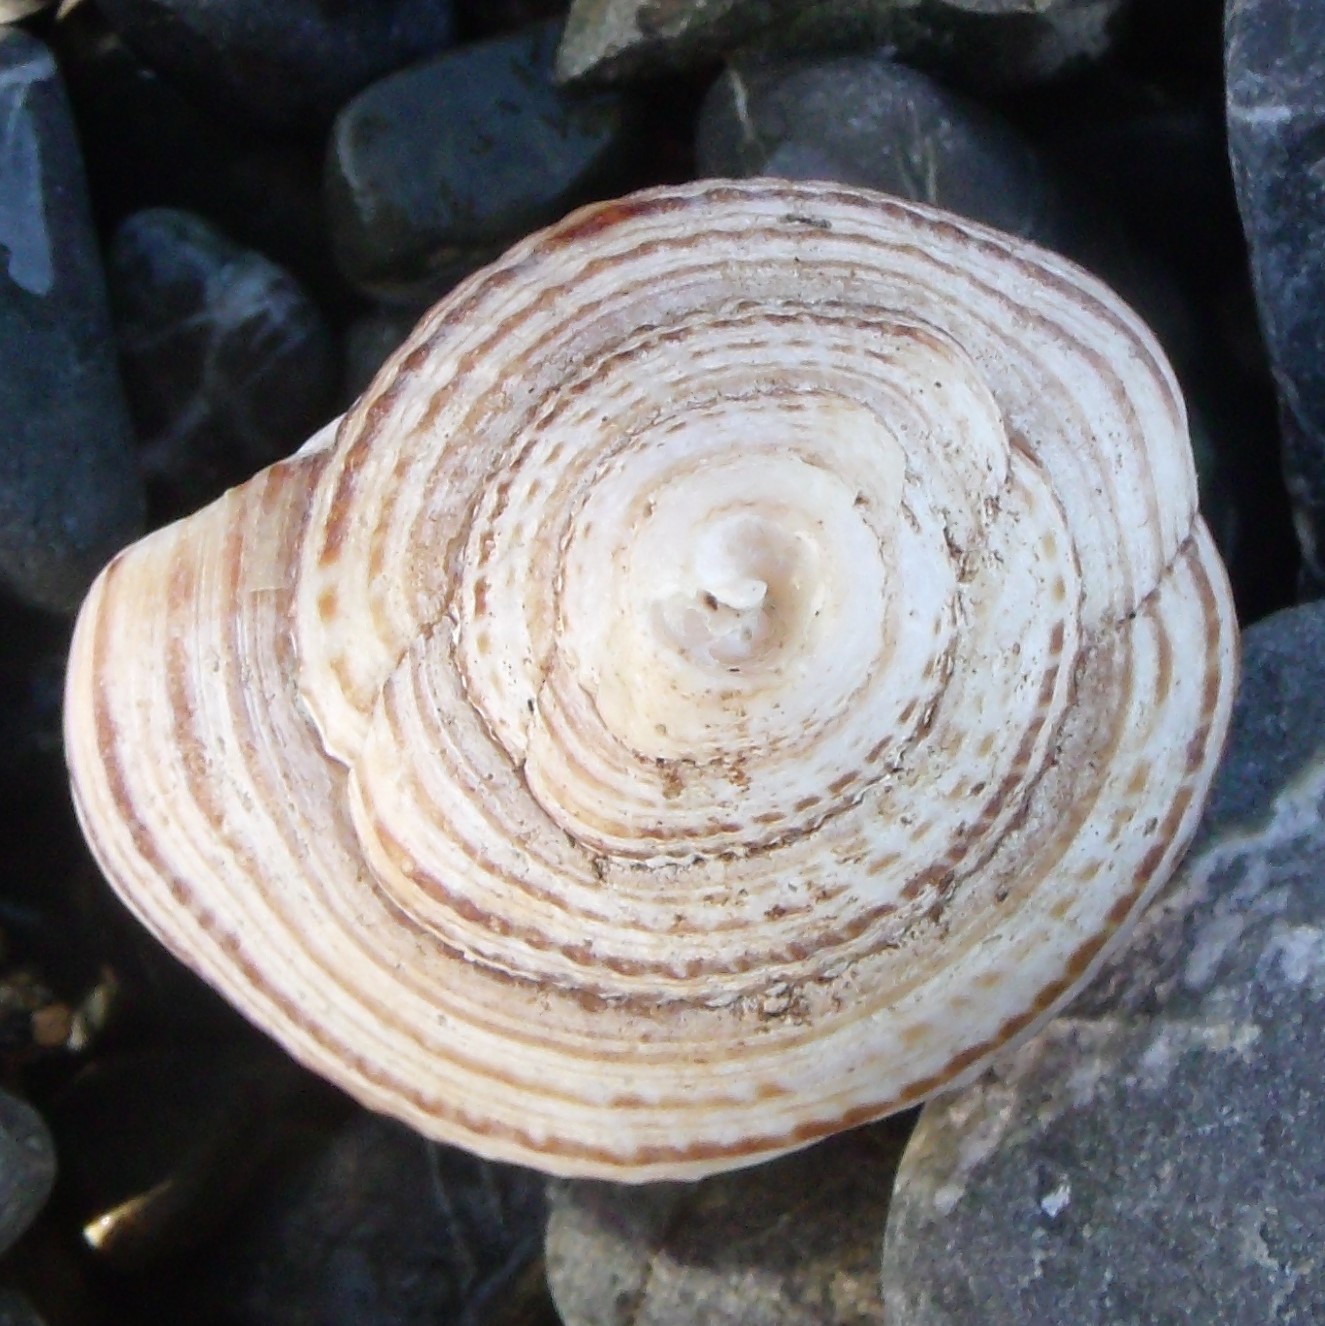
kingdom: Animalia
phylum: Mollusca
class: Gastropoda
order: Littorinimorpha
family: Cymatiidae
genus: Argobuccinum
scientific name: Argobuccinum pustulosum
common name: Pustular triton
